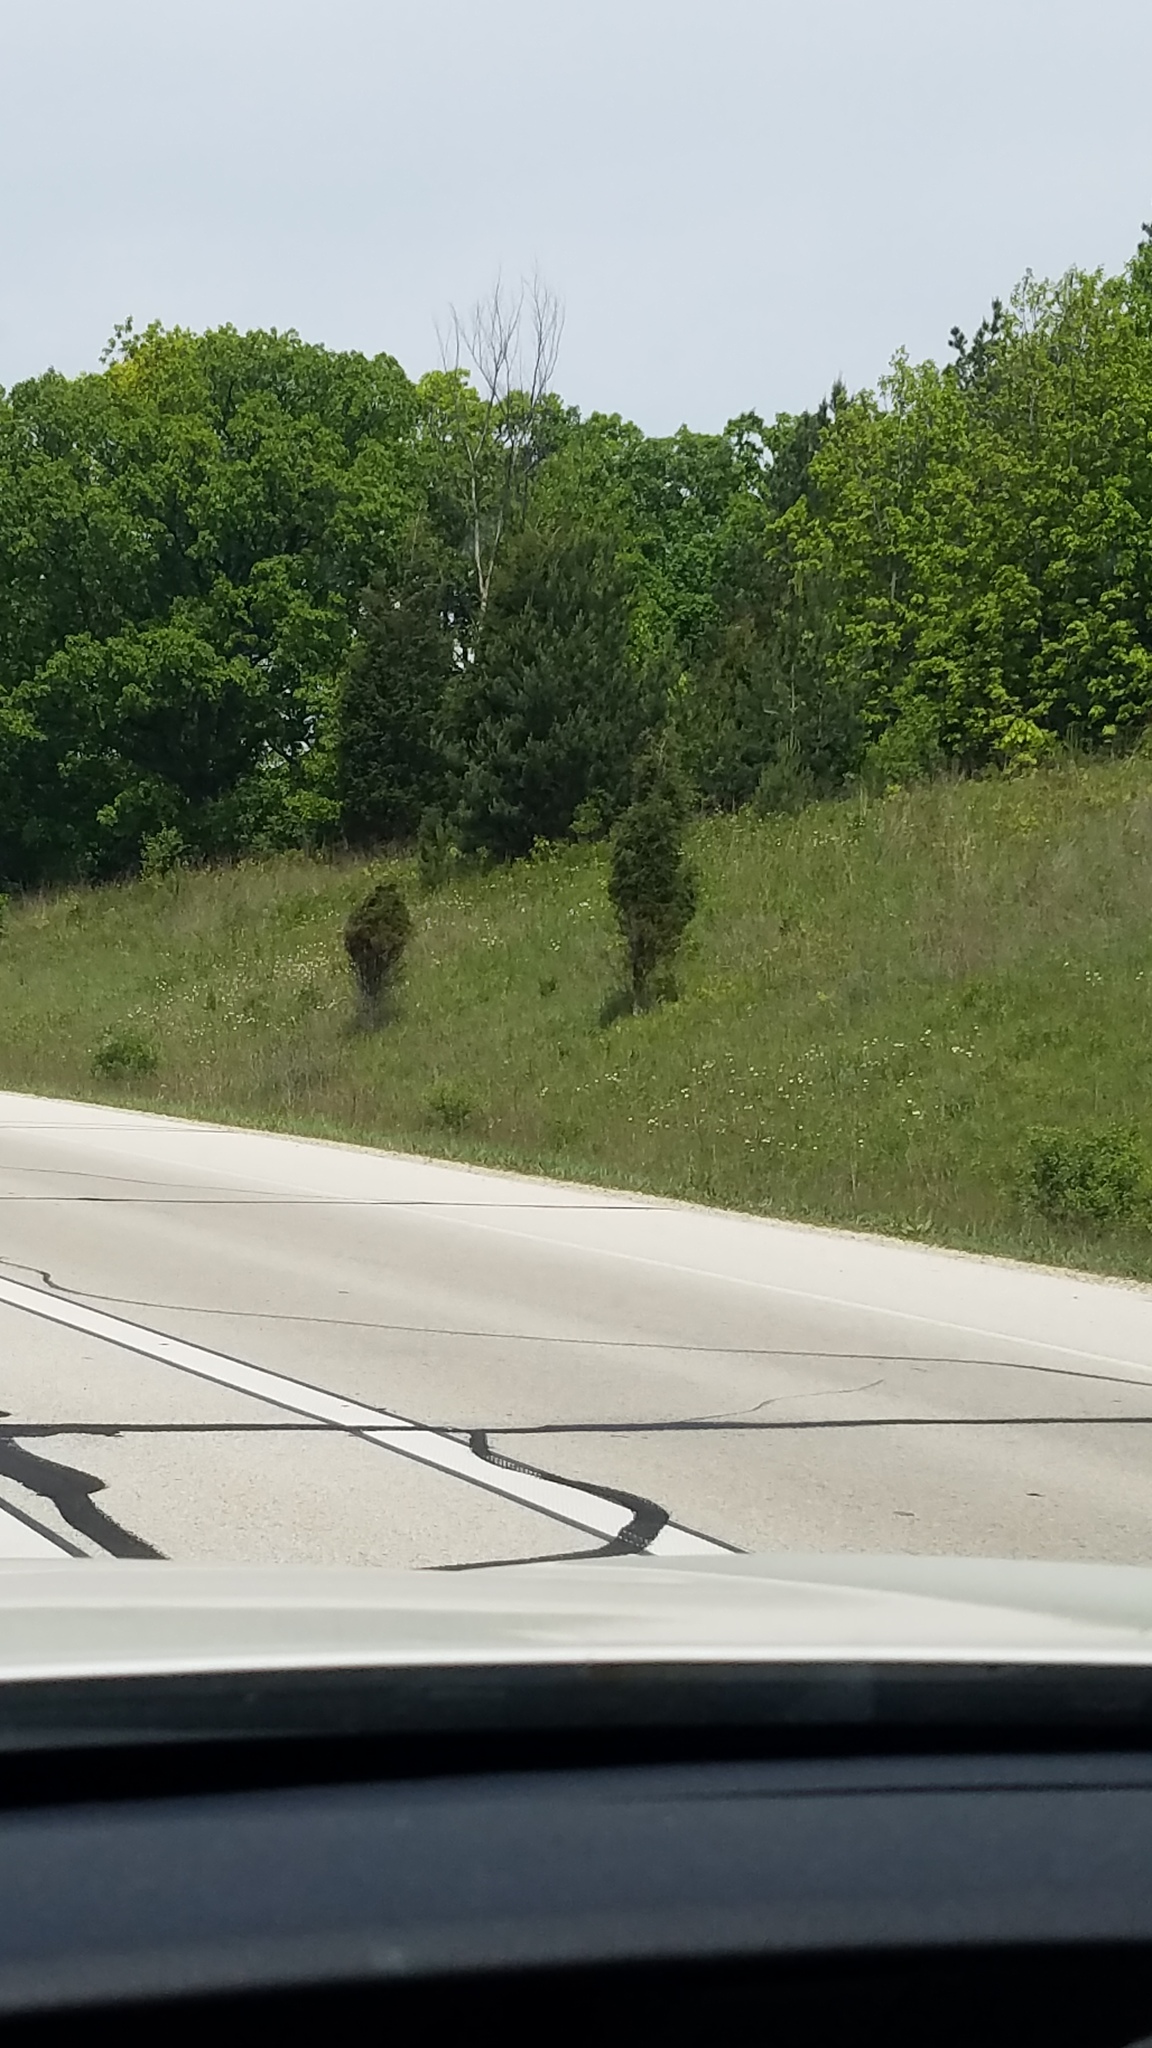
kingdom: Plantae
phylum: Tracheophyta
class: Pinopsida
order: Pinales
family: Cupressaceae
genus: Juniperus
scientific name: Juniperus virginiana
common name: Red juniper
